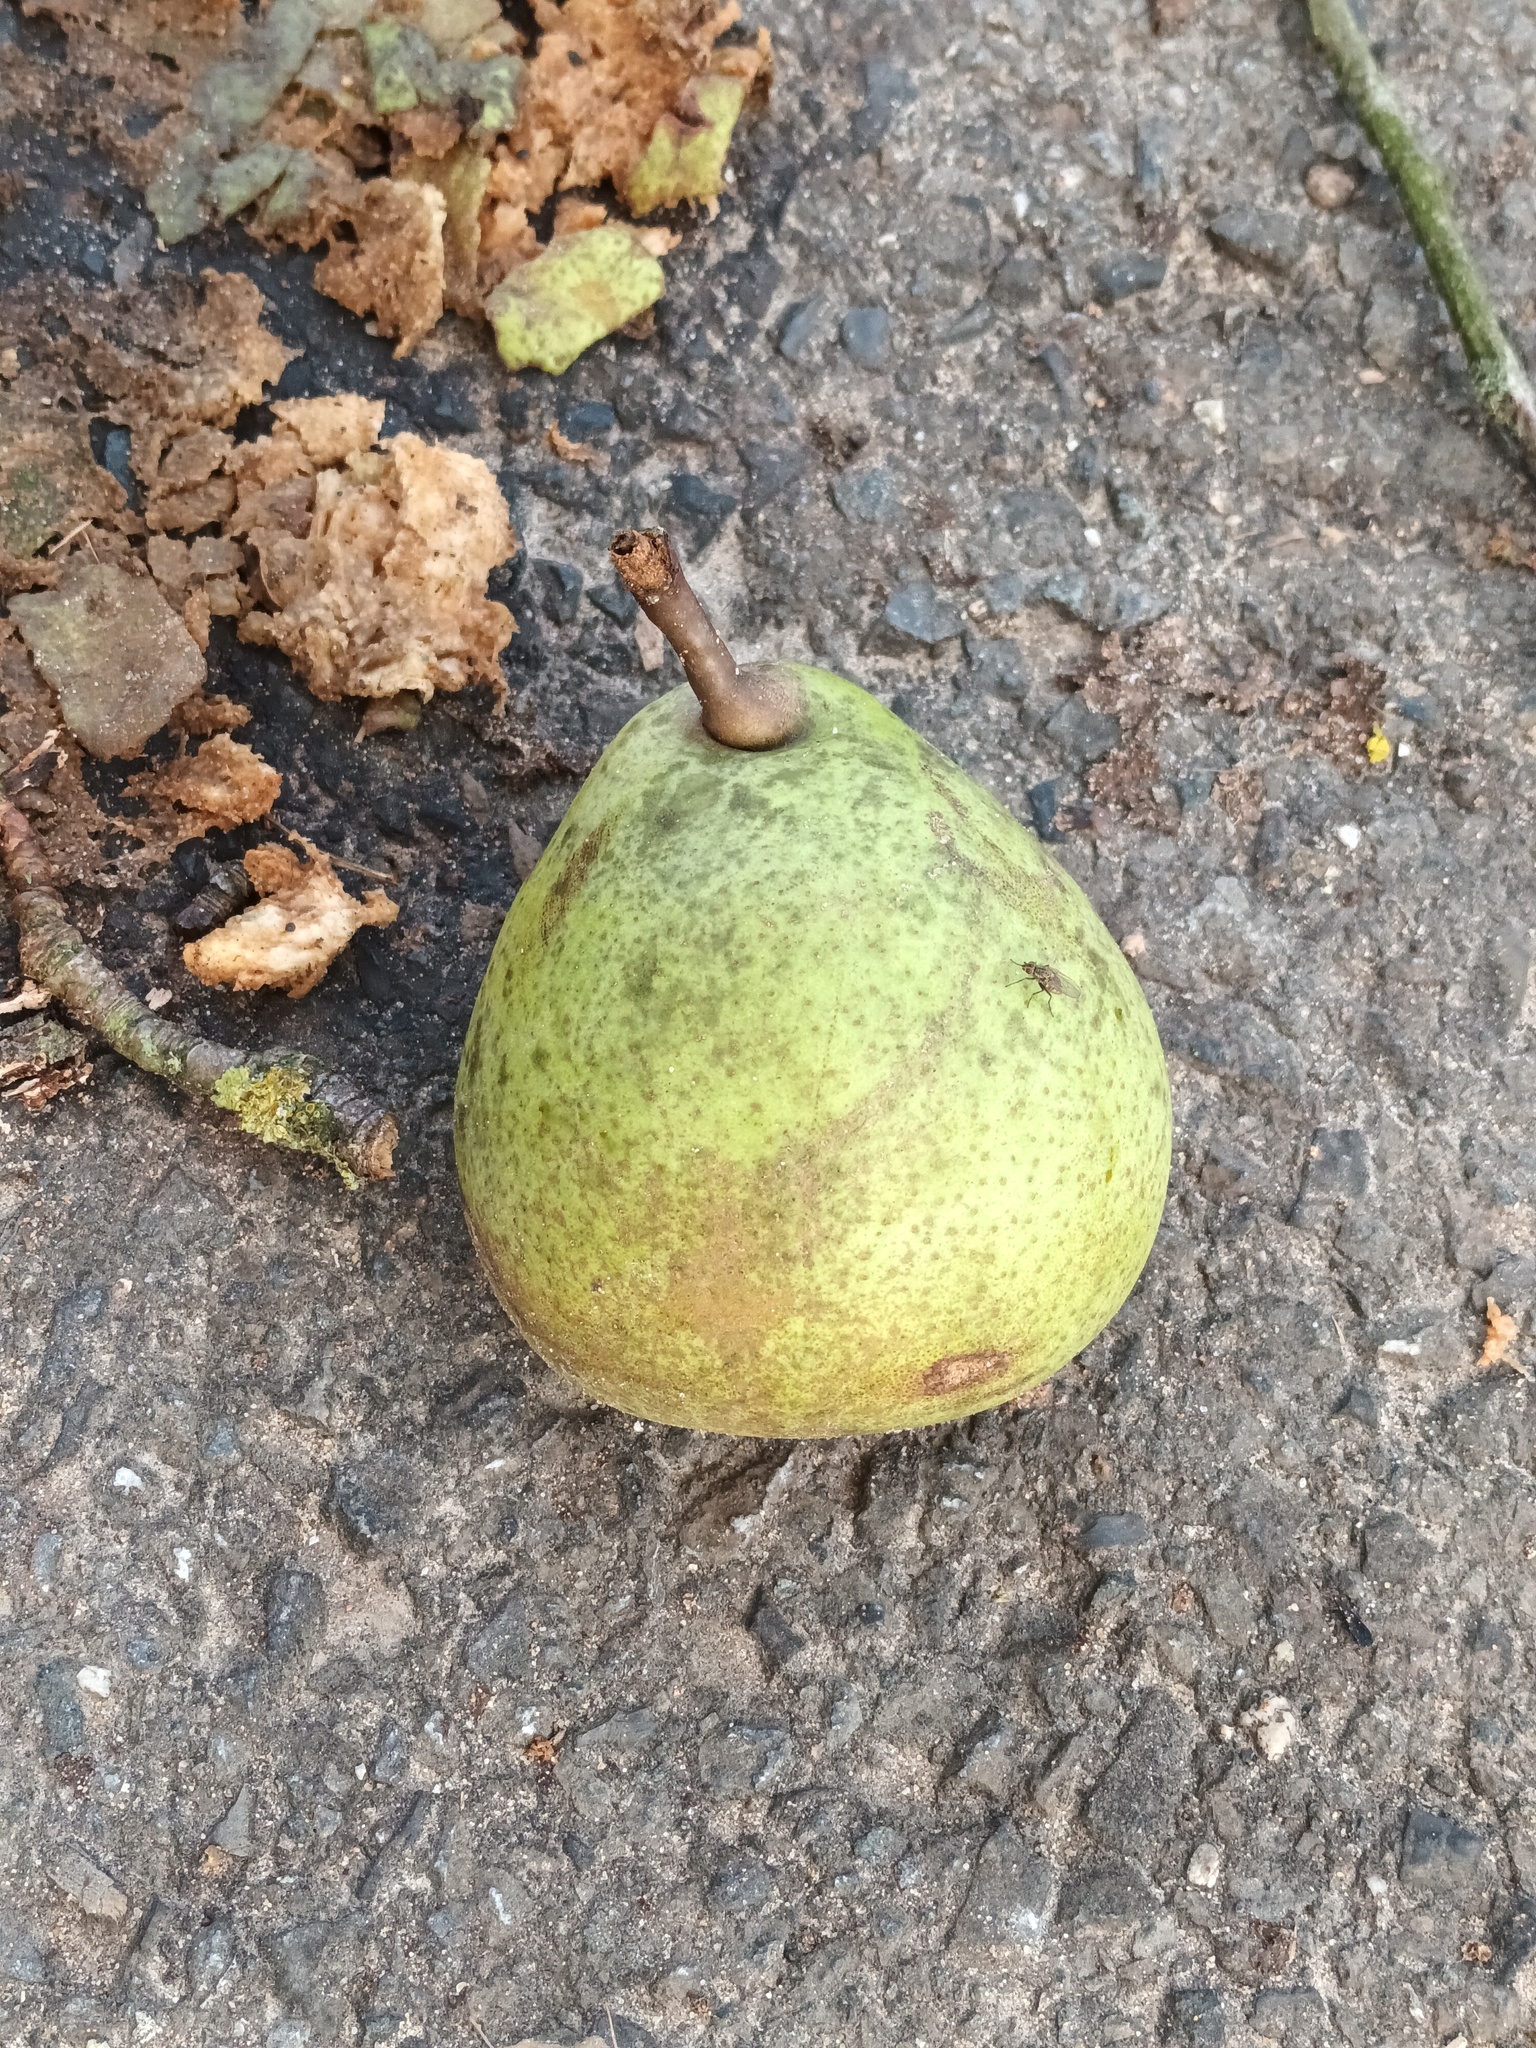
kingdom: Plantae
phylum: Tracheophyta
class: Magnoliopsida
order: Rosales
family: Rosaceae
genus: Pyrus
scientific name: Pyrus communis
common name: Pear
